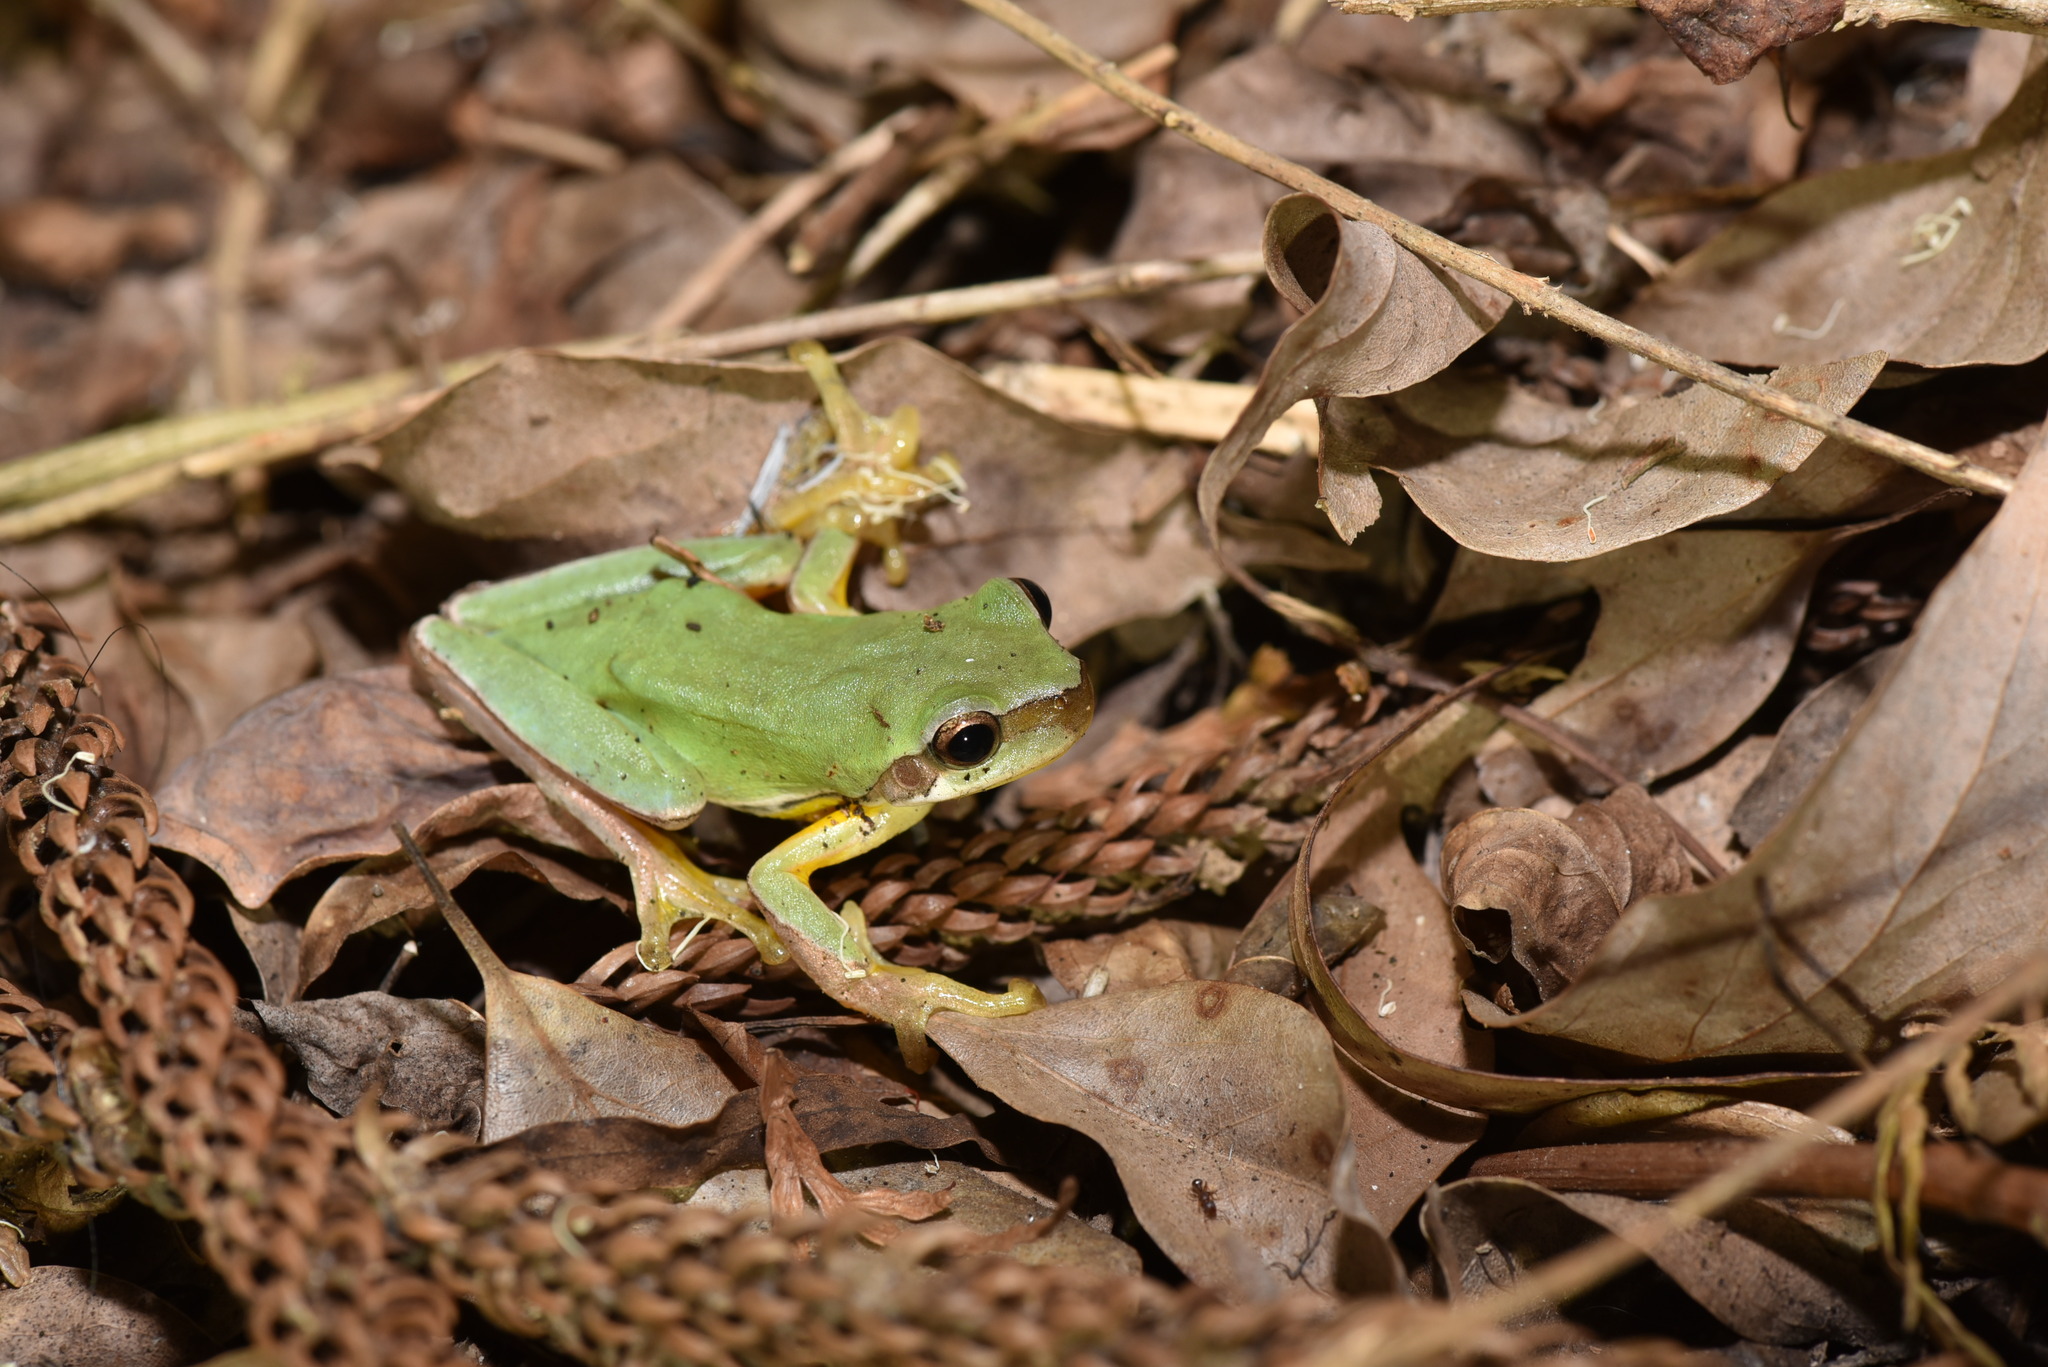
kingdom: Animalia
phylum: Chordata
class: Amphibia
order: Anura
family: Hylidae
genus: Hyla
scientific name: Hyla chinensis
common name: Common chinese treefrog
